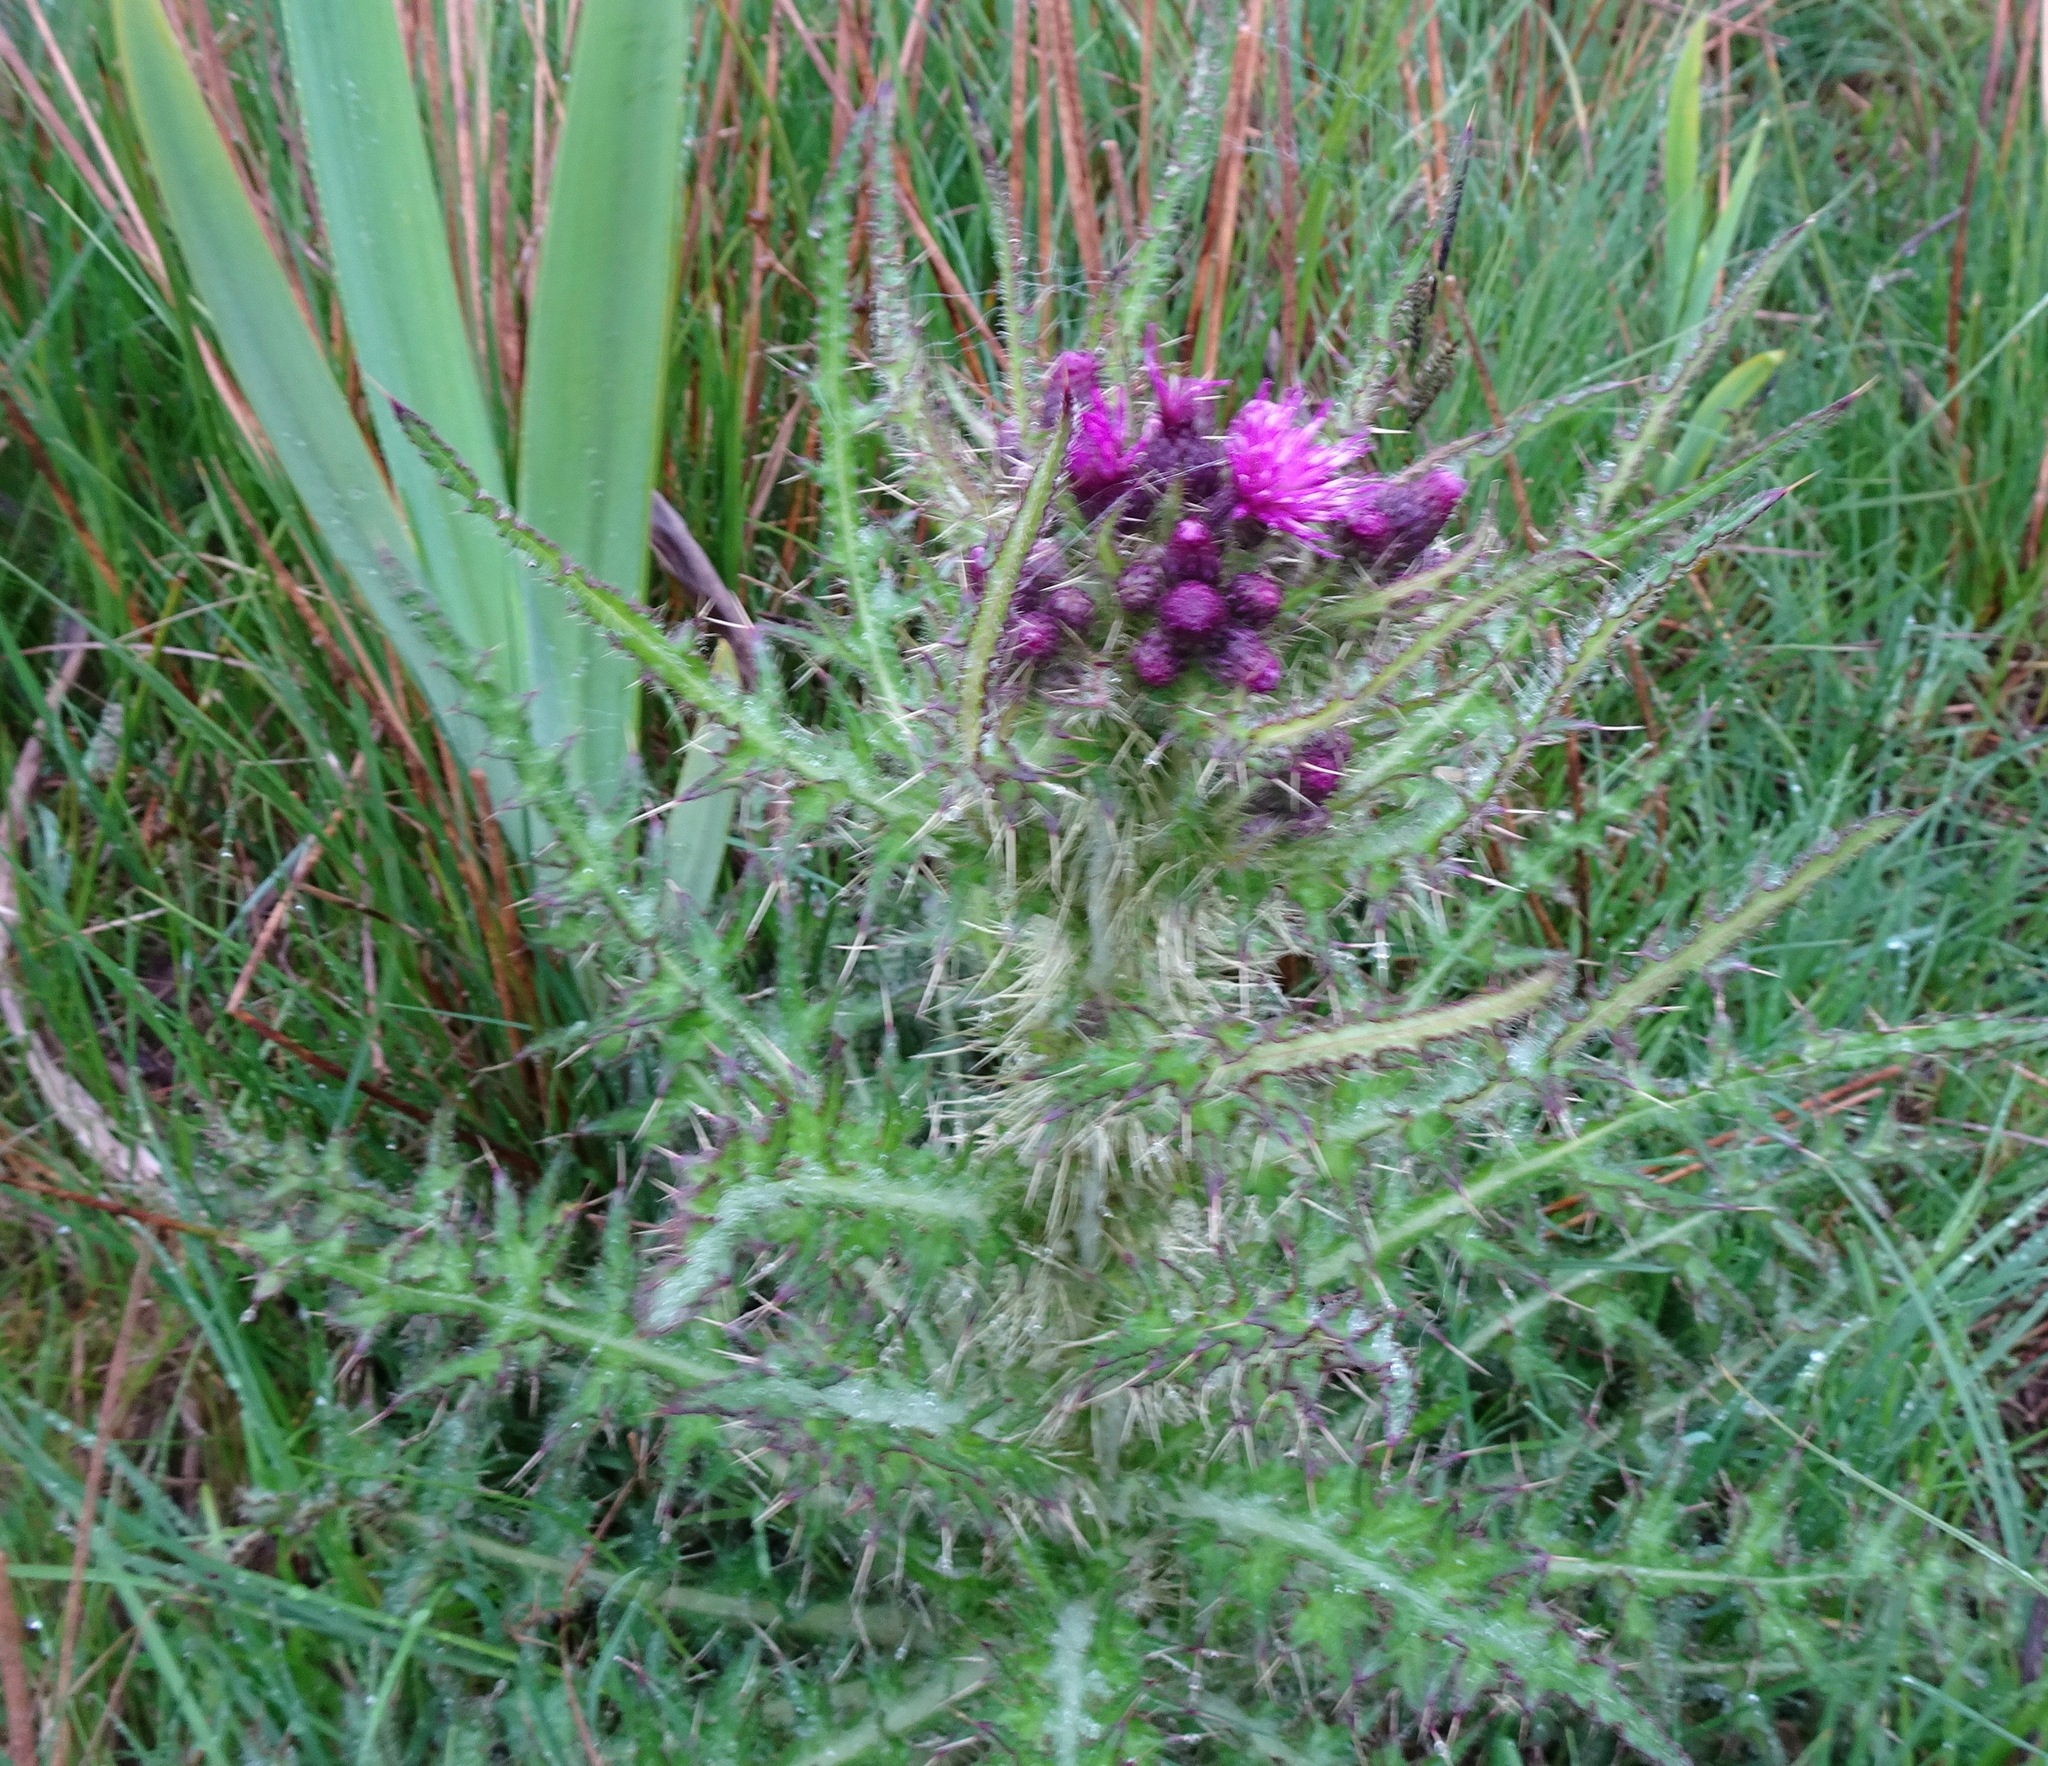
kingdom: Plantae
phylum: Tracheophyta
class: Magnoliopsida
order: Asterales
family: Asteraceae
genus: Cirsium
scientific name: Cirsium palustre
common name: Marsh thistle
